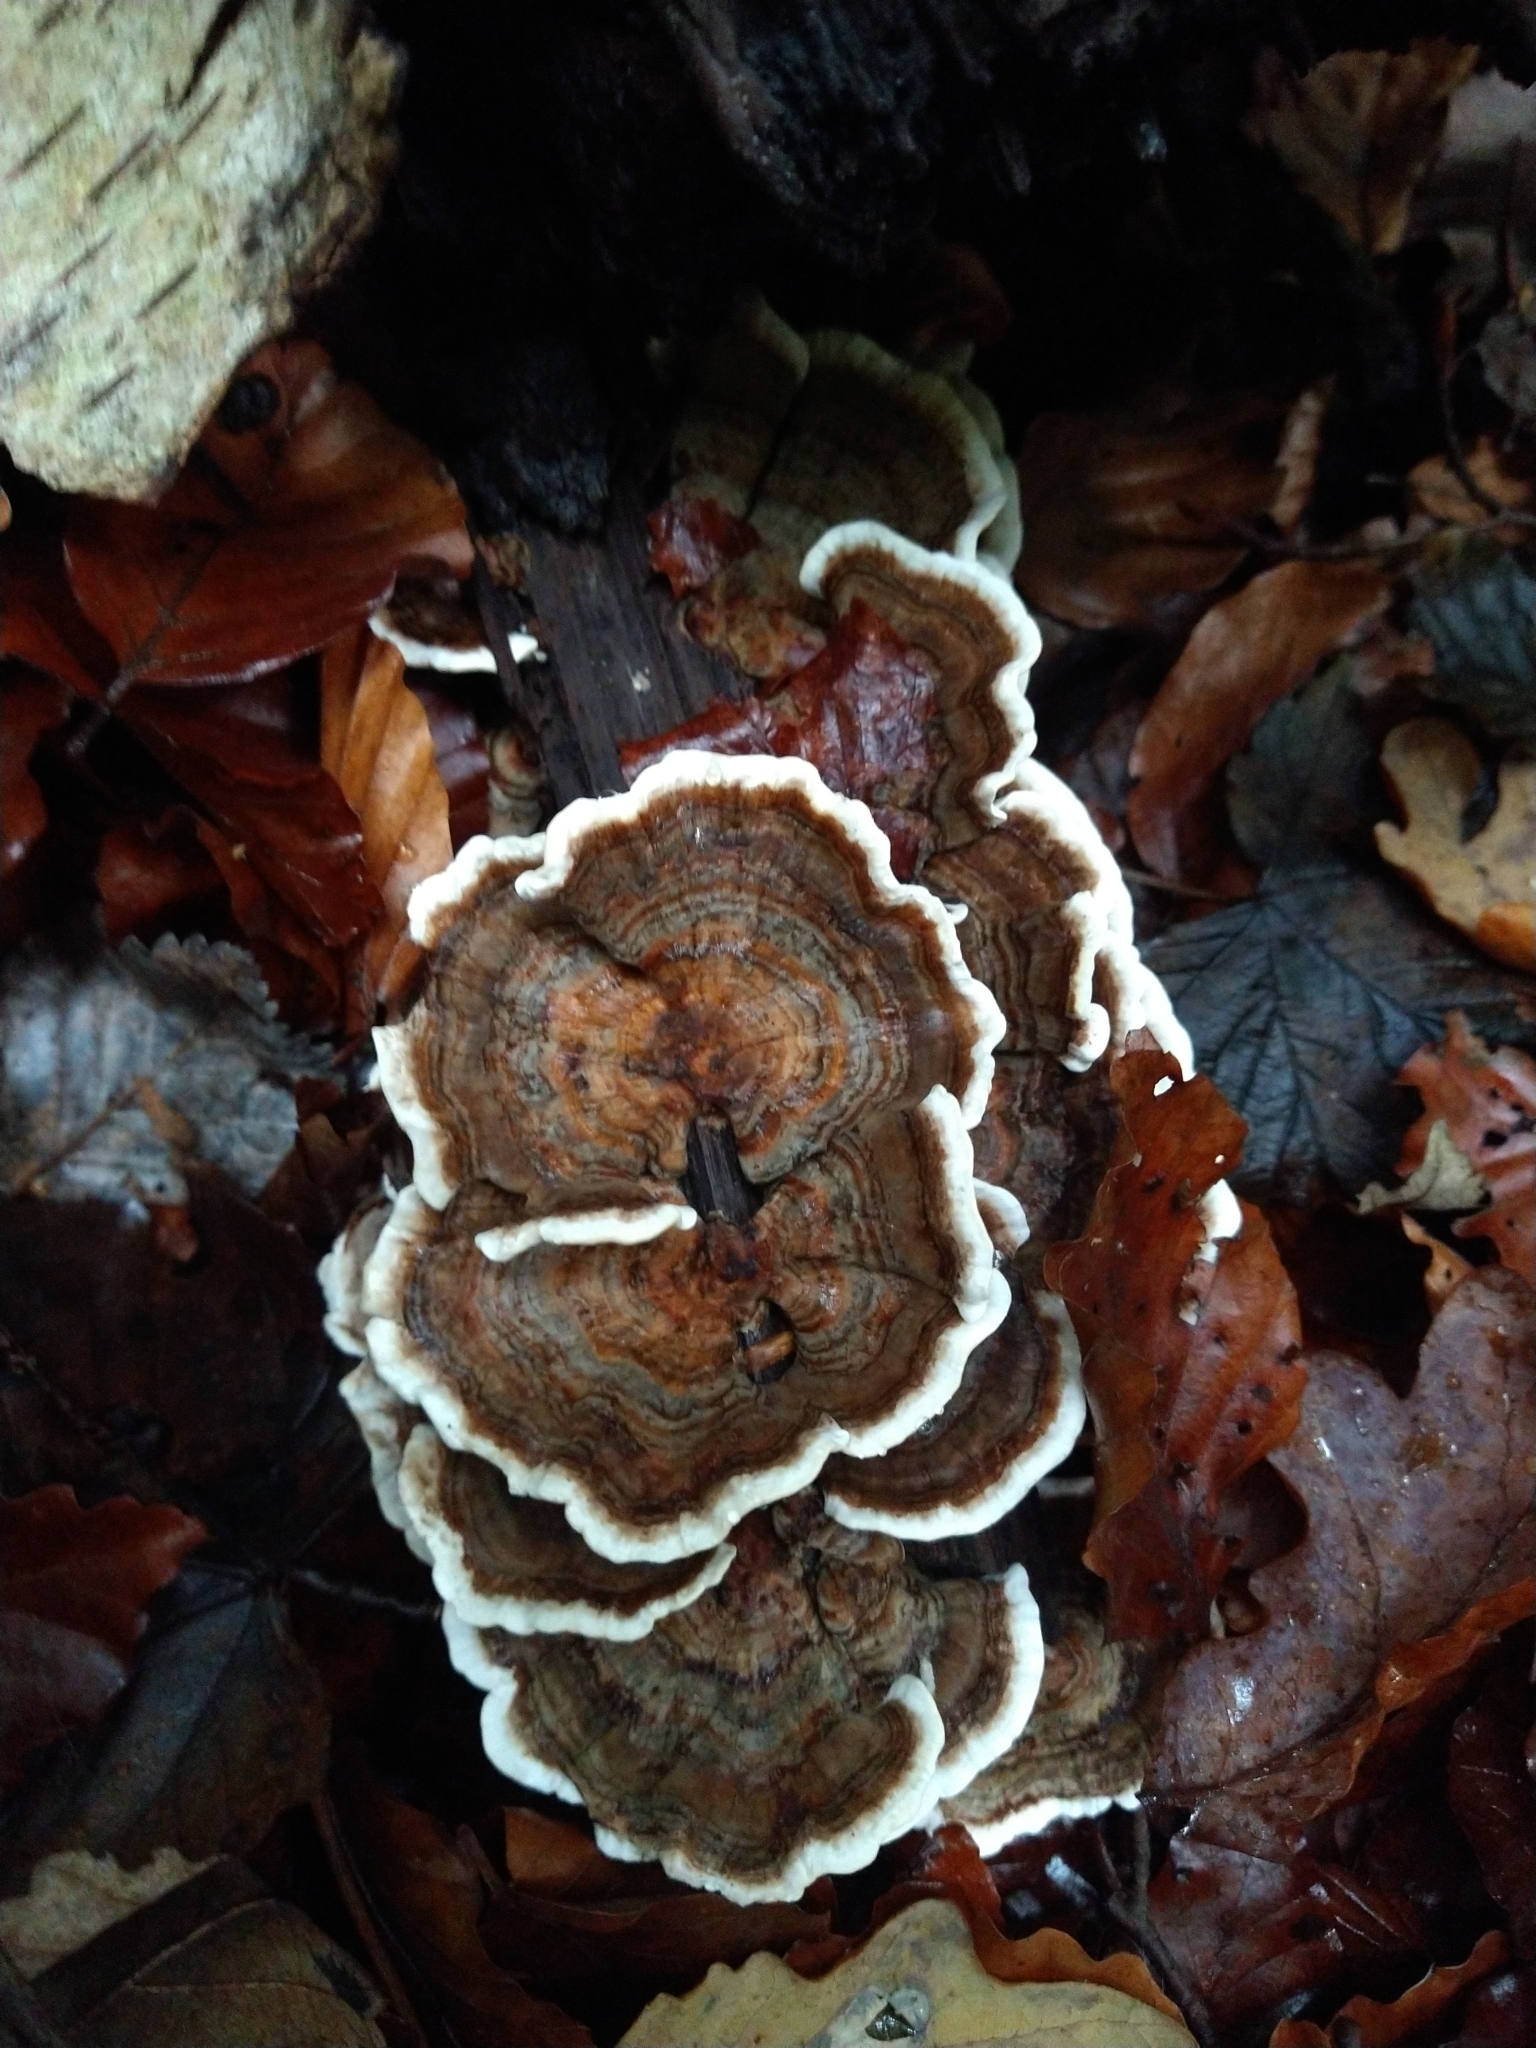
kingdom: Fungi
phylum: Basidiomycota
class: Agaricomycetes
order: Polyporales
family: Polyporaceae
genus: Trametes
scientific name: Trametes versicolor
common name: Turkeytail
